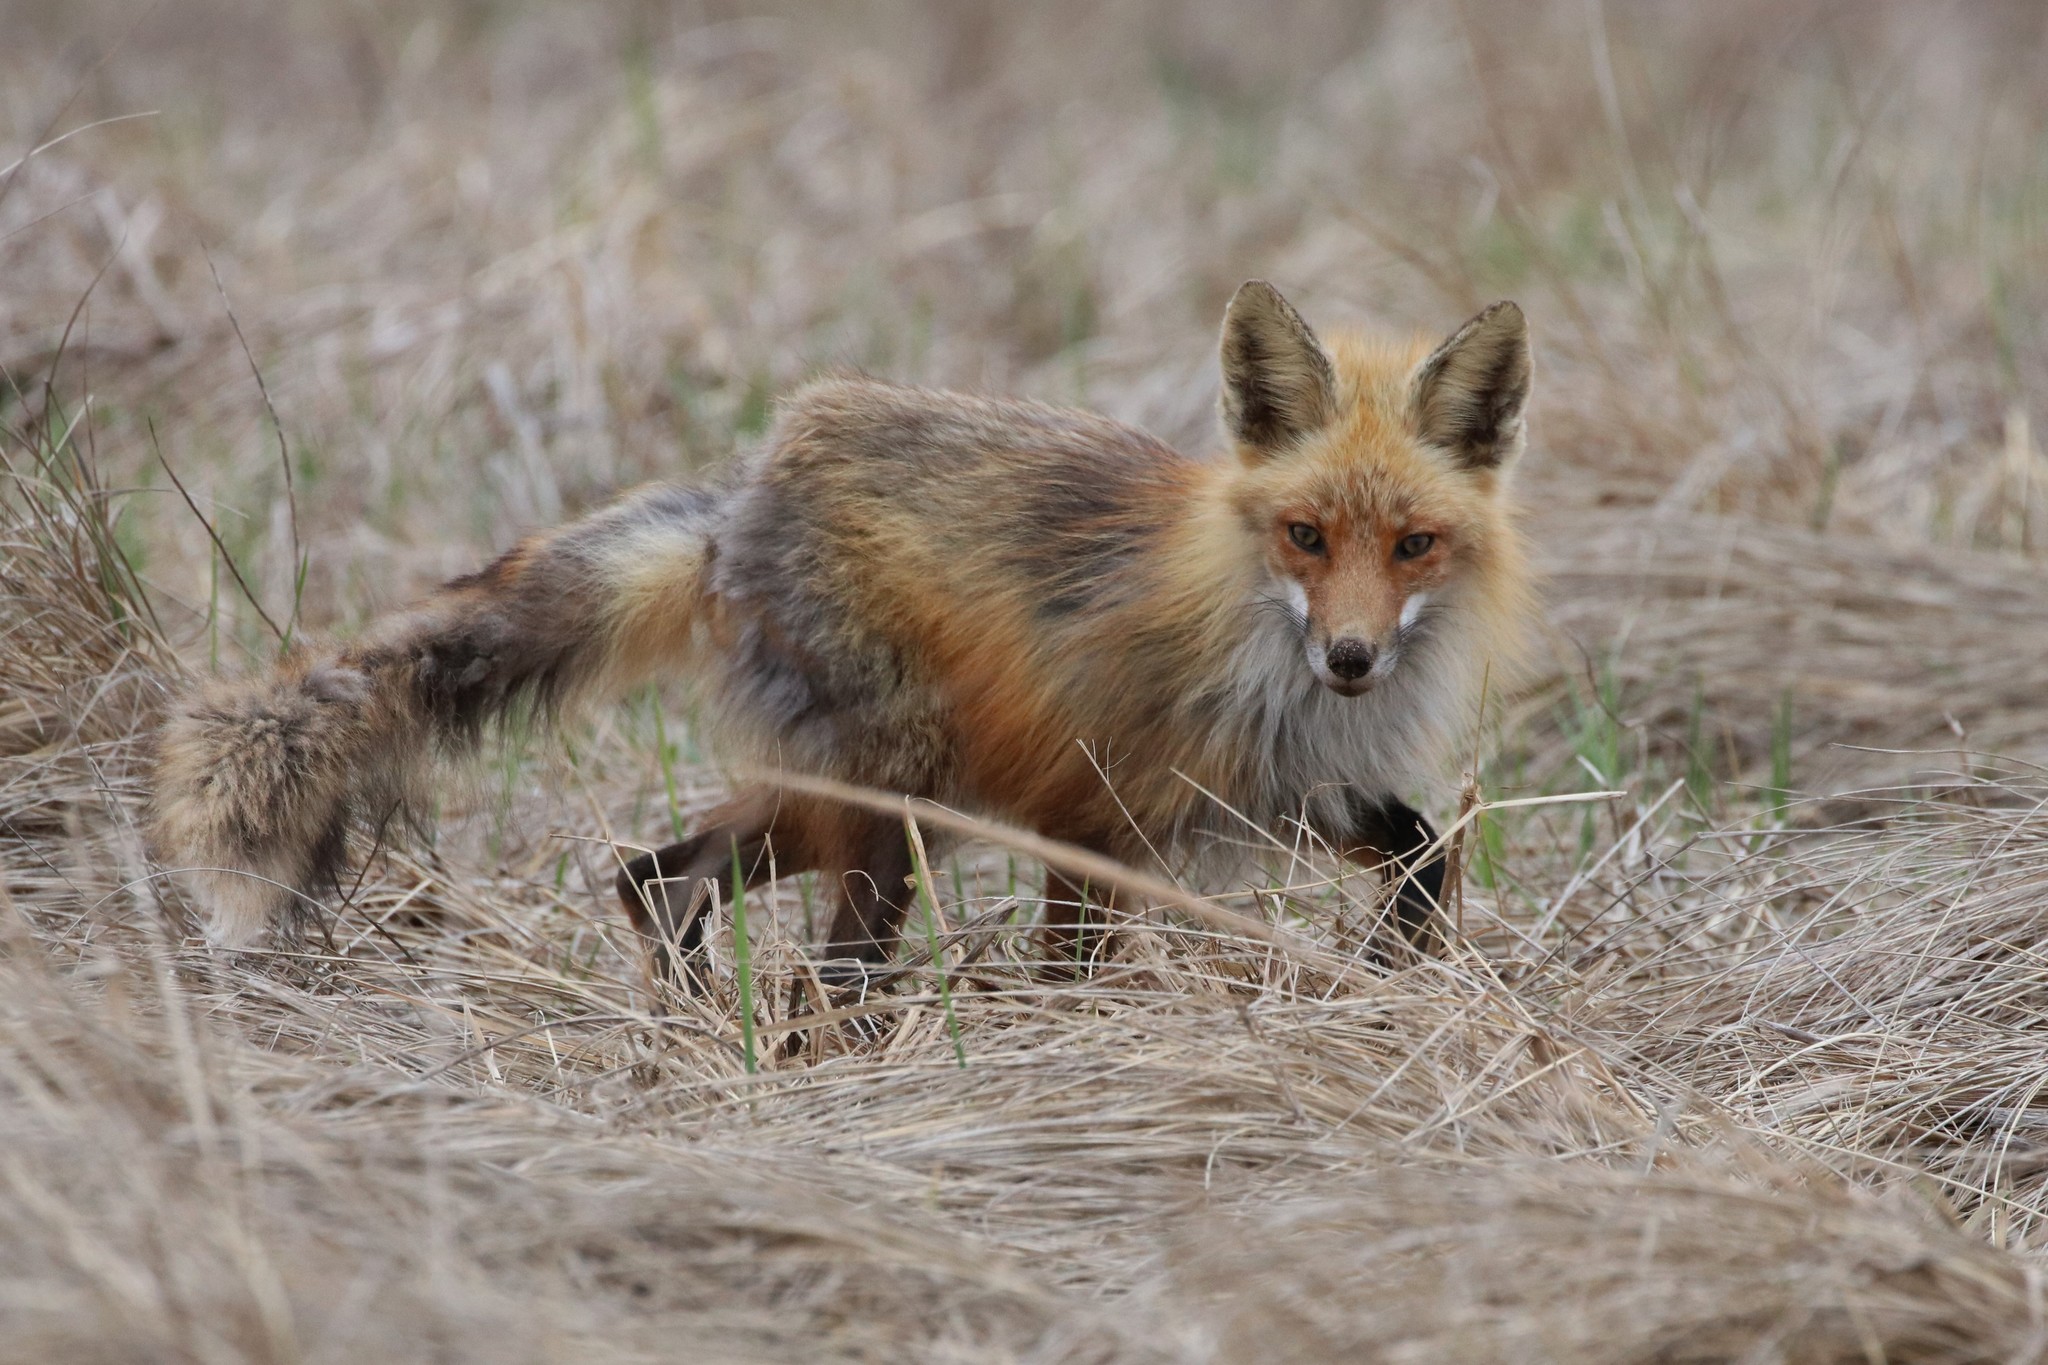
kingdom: Animalia
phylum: Chordata
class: Mammalia
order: Carnivora
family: Canidae
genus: Vulpes
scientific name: Vulpes vulpes
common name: Red fox
